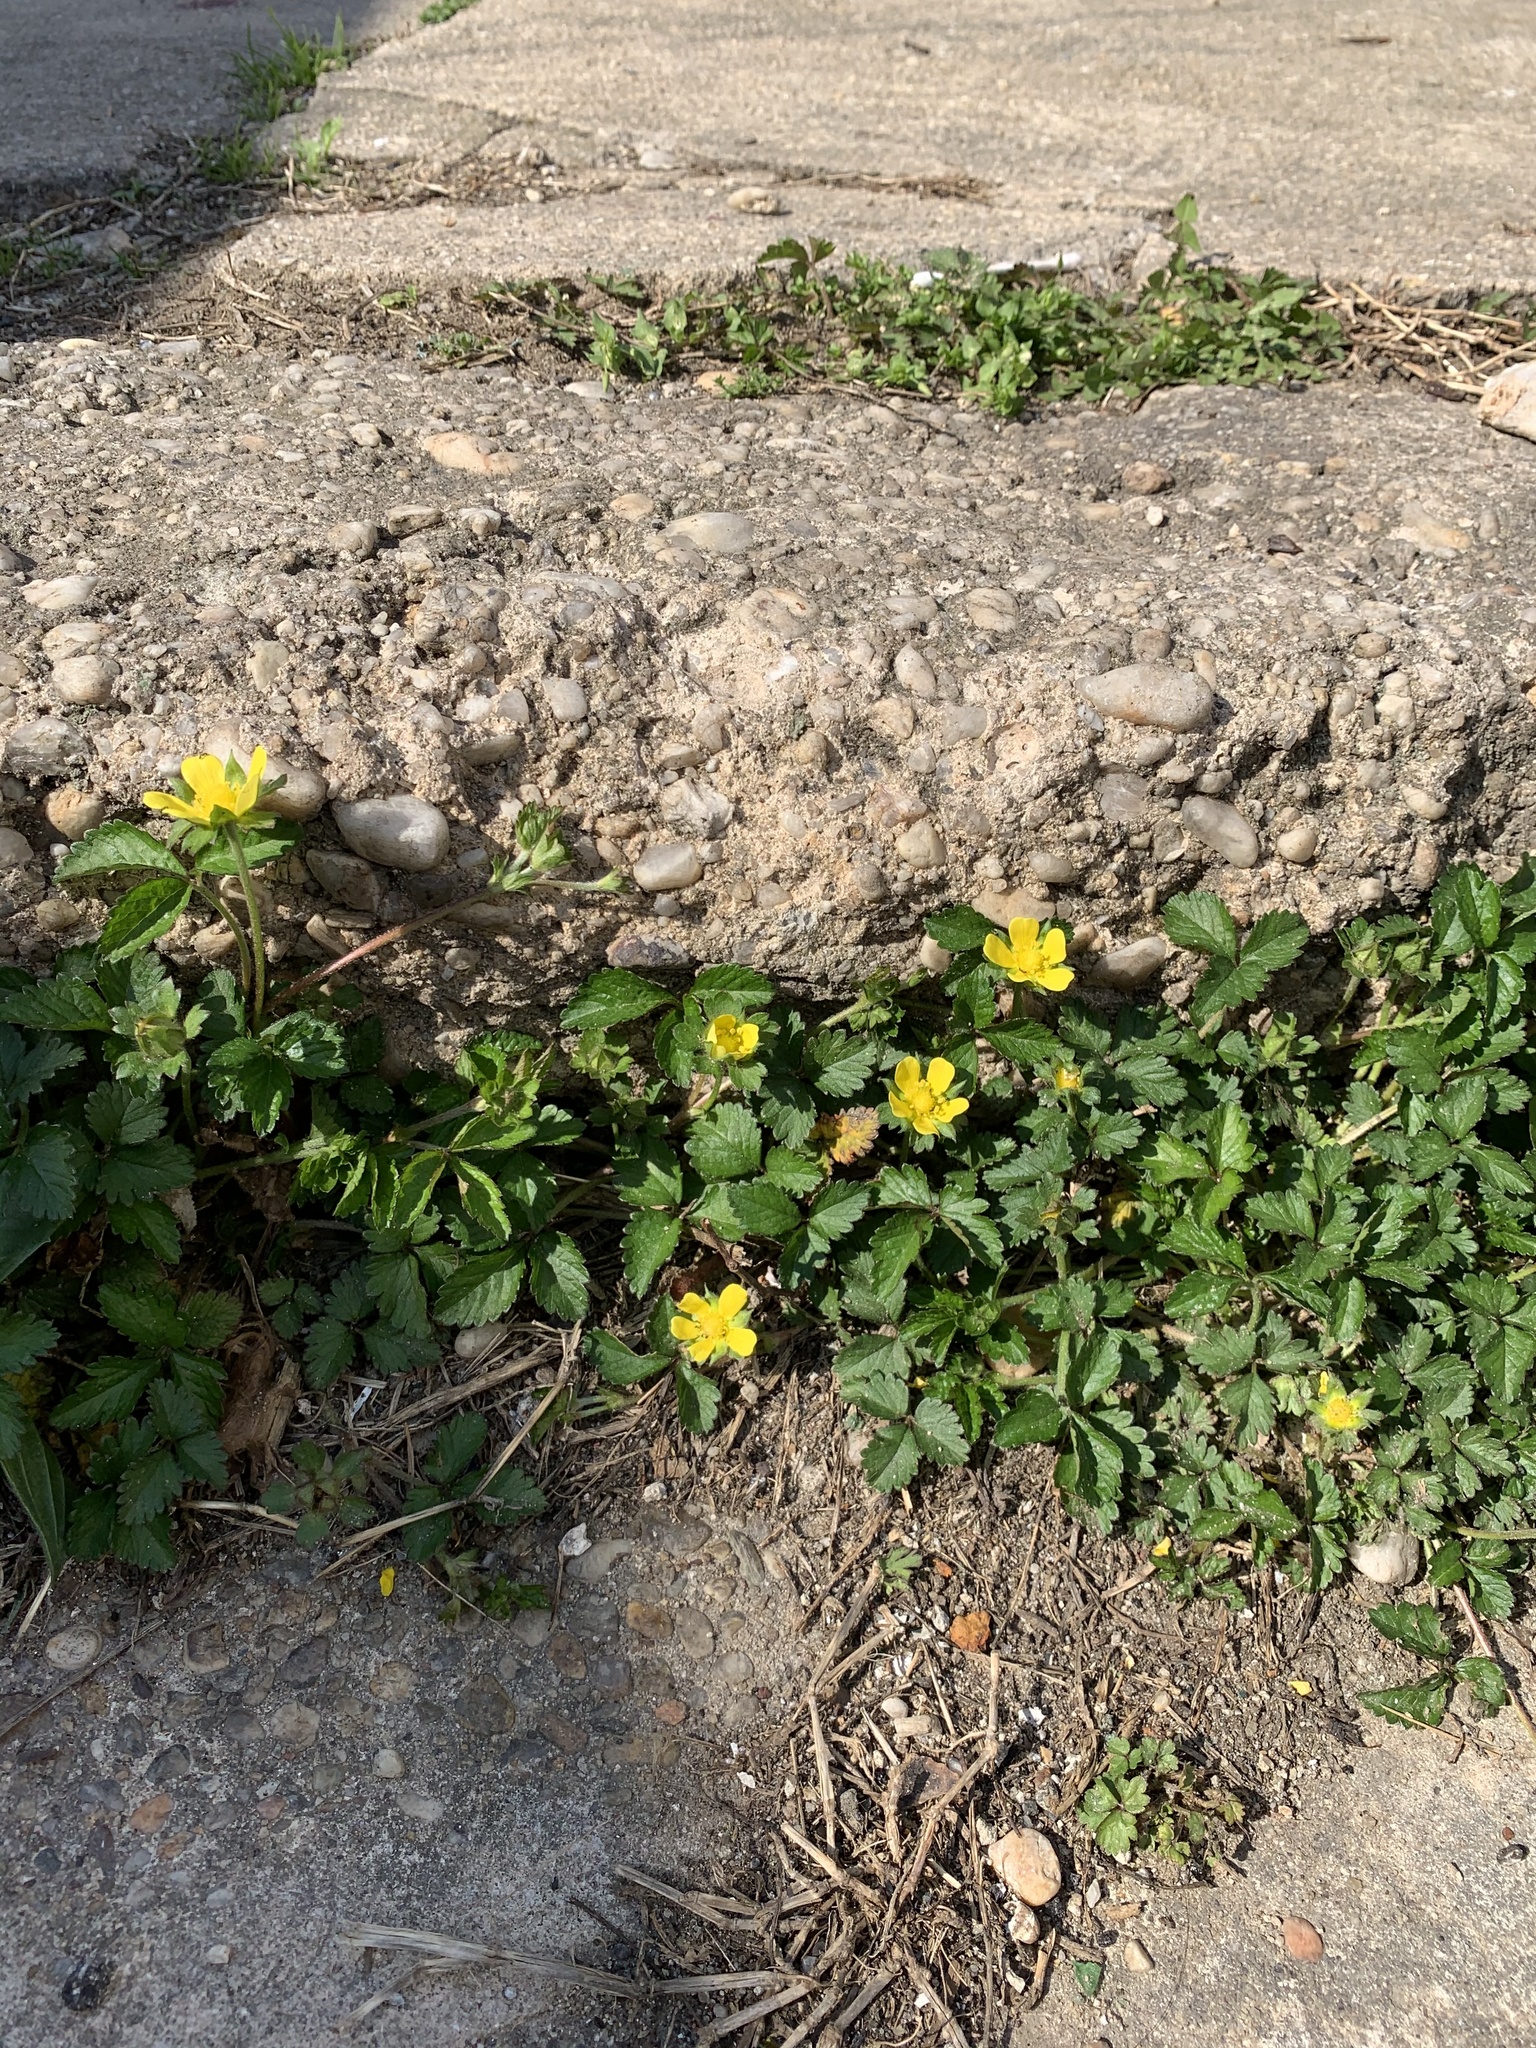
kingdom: Plantae
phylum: Tracheophyta
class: Magnoliopsida
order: Rosales
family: Rosaceae
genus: Potentilla
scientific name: Potentilla indica
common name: Yellow-flowered strawberry
